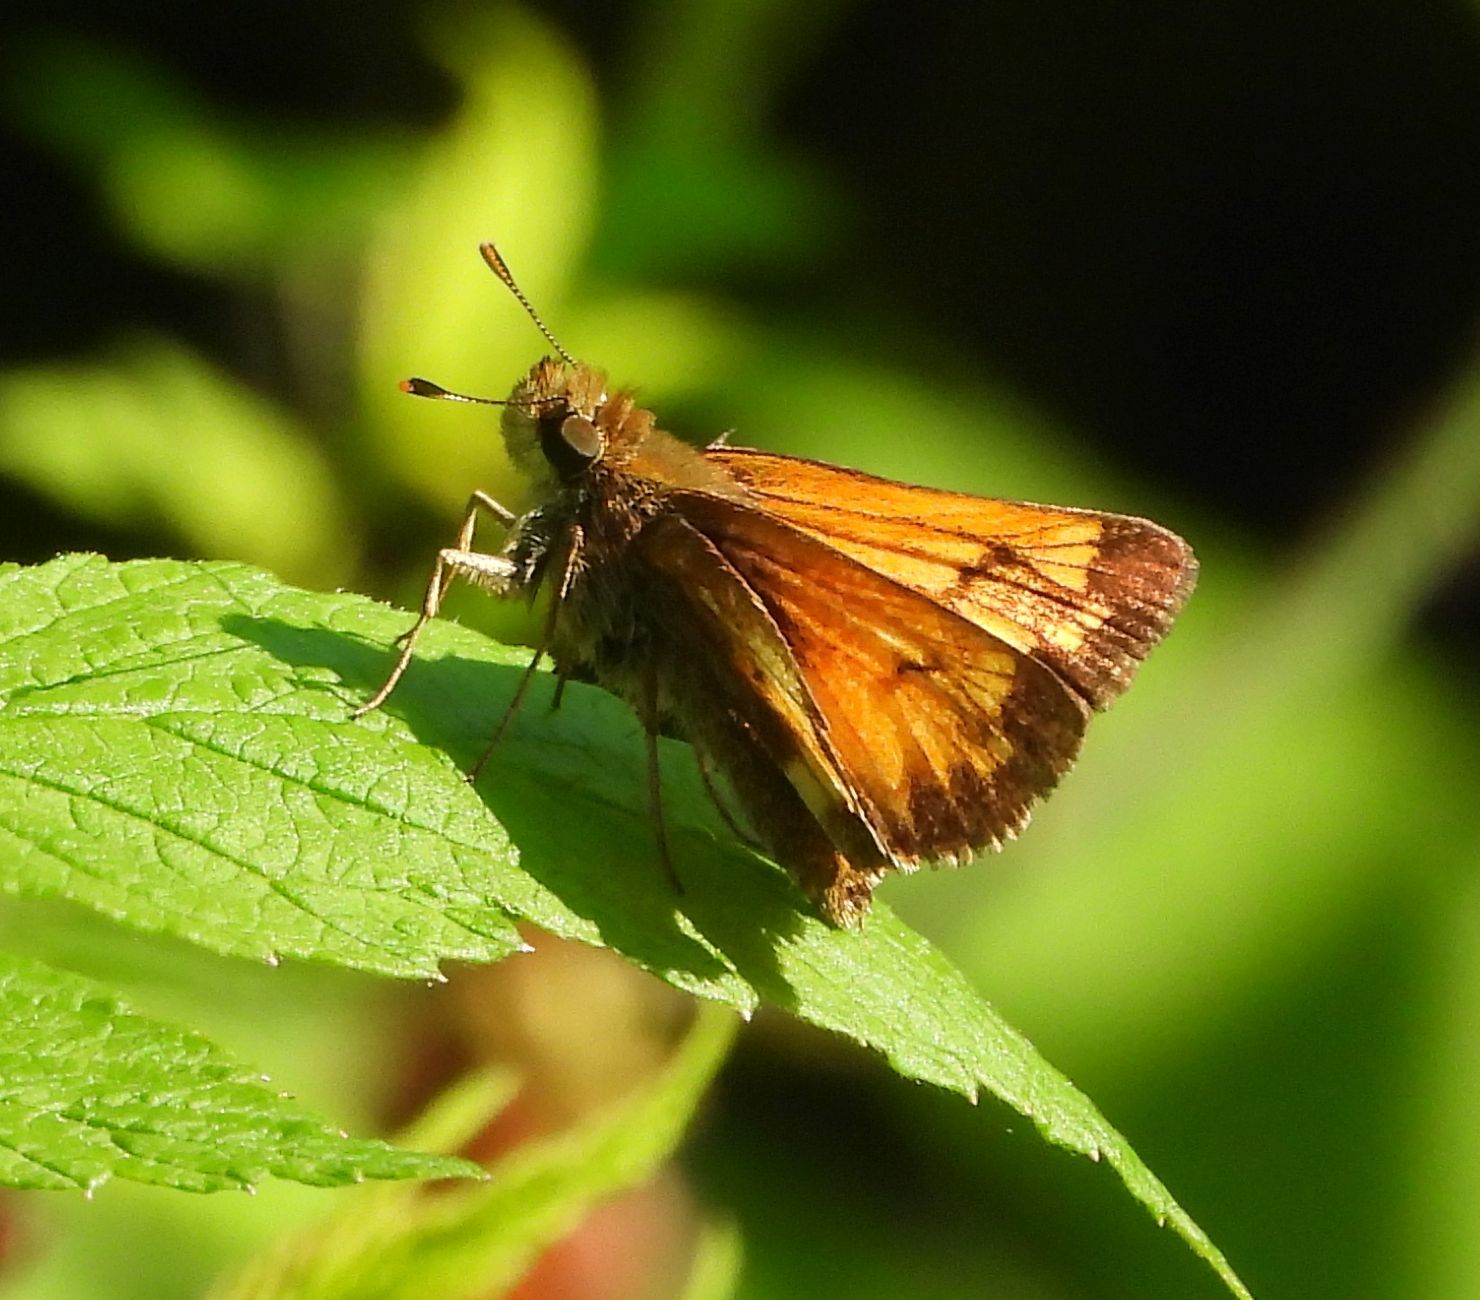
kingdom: Animalia
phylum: Arthropoda
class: Insecta
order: Lepidoptera
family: Hesperiidae
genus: Lon
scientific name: Lon hobomok
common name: Hobomok skipper
